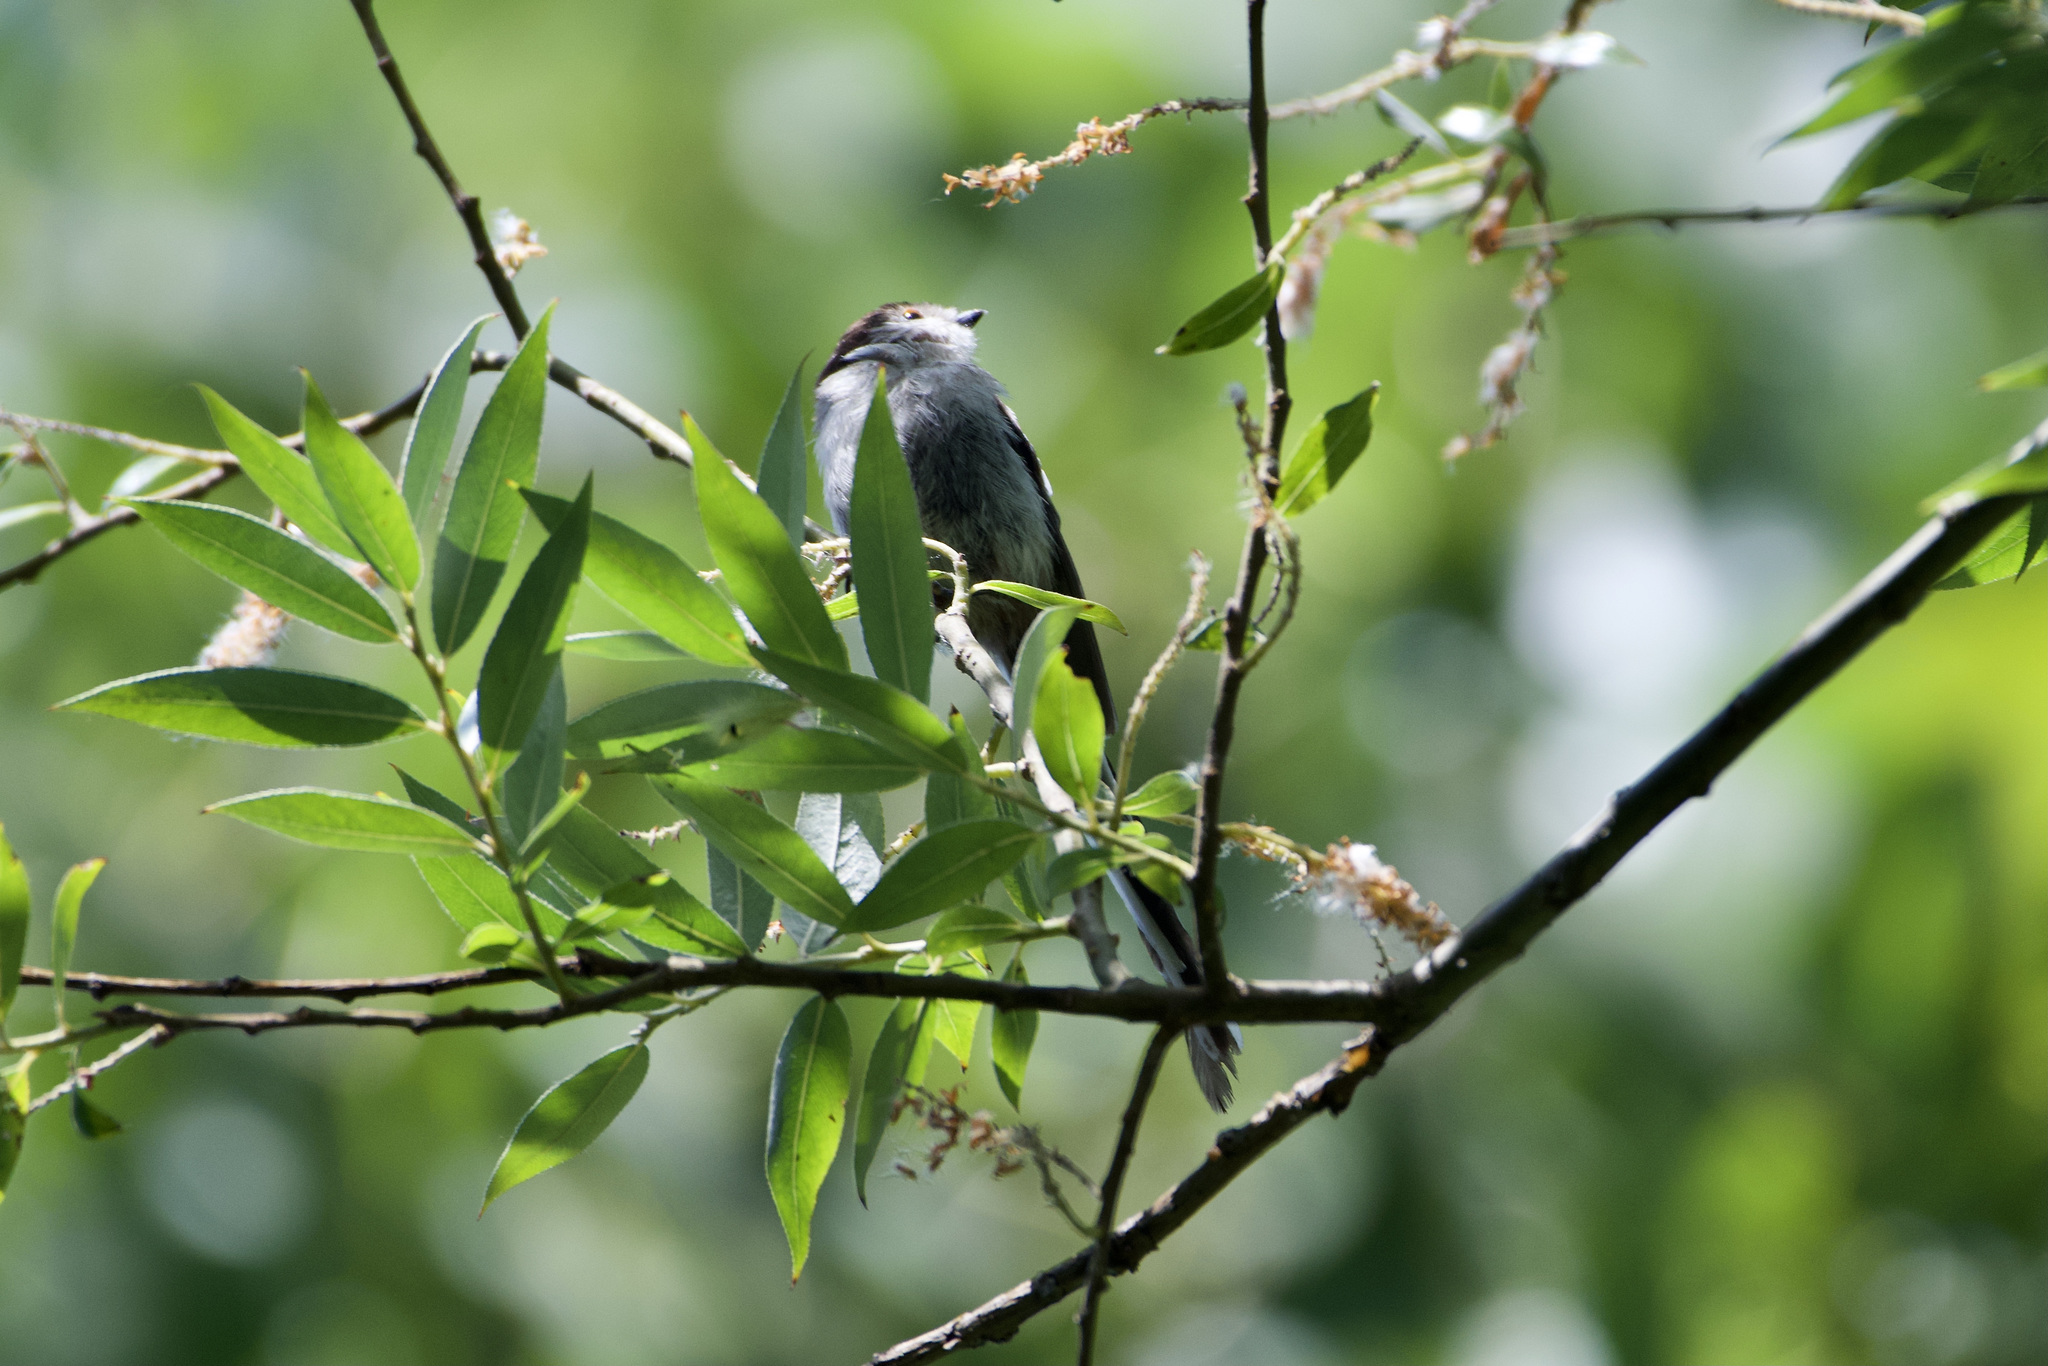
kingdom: Animalia
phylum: Chordata
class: Aves
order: Passeriformes
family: Aegithalidae
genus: Aegithalos
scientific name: Aegithalos caudatus
